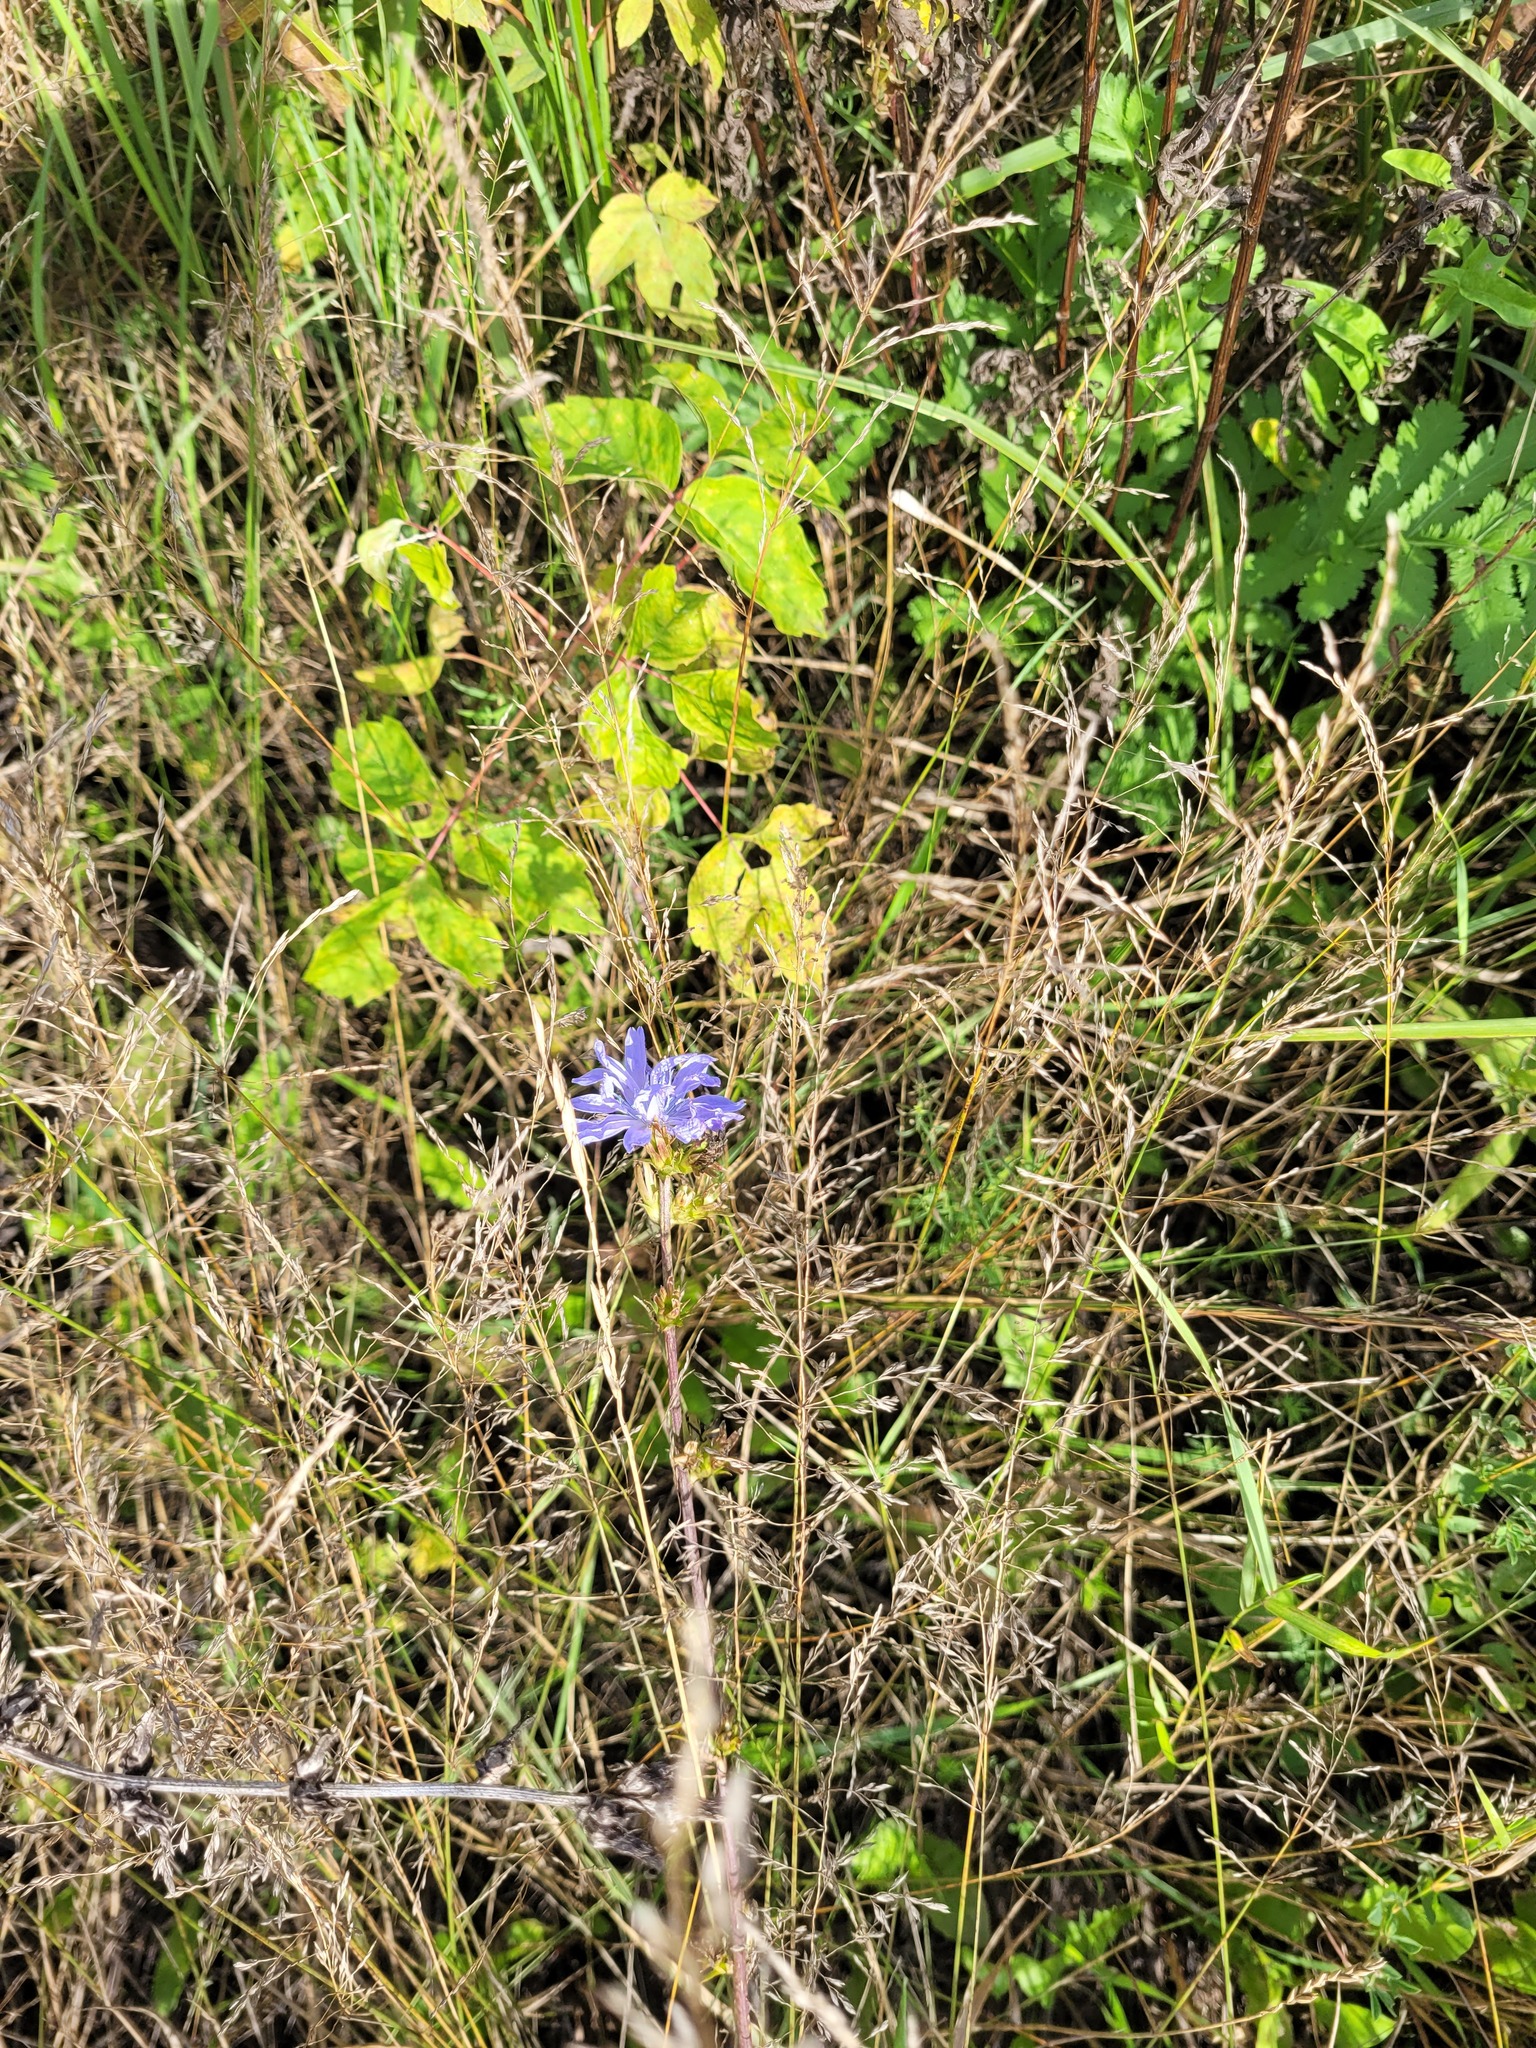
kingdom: Plantae
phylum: Tracheophyta
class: Magnoliopsida
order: Asterales
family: Asteraceae
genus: Cichorium
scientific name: Cichorium intybus
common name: Chicory
